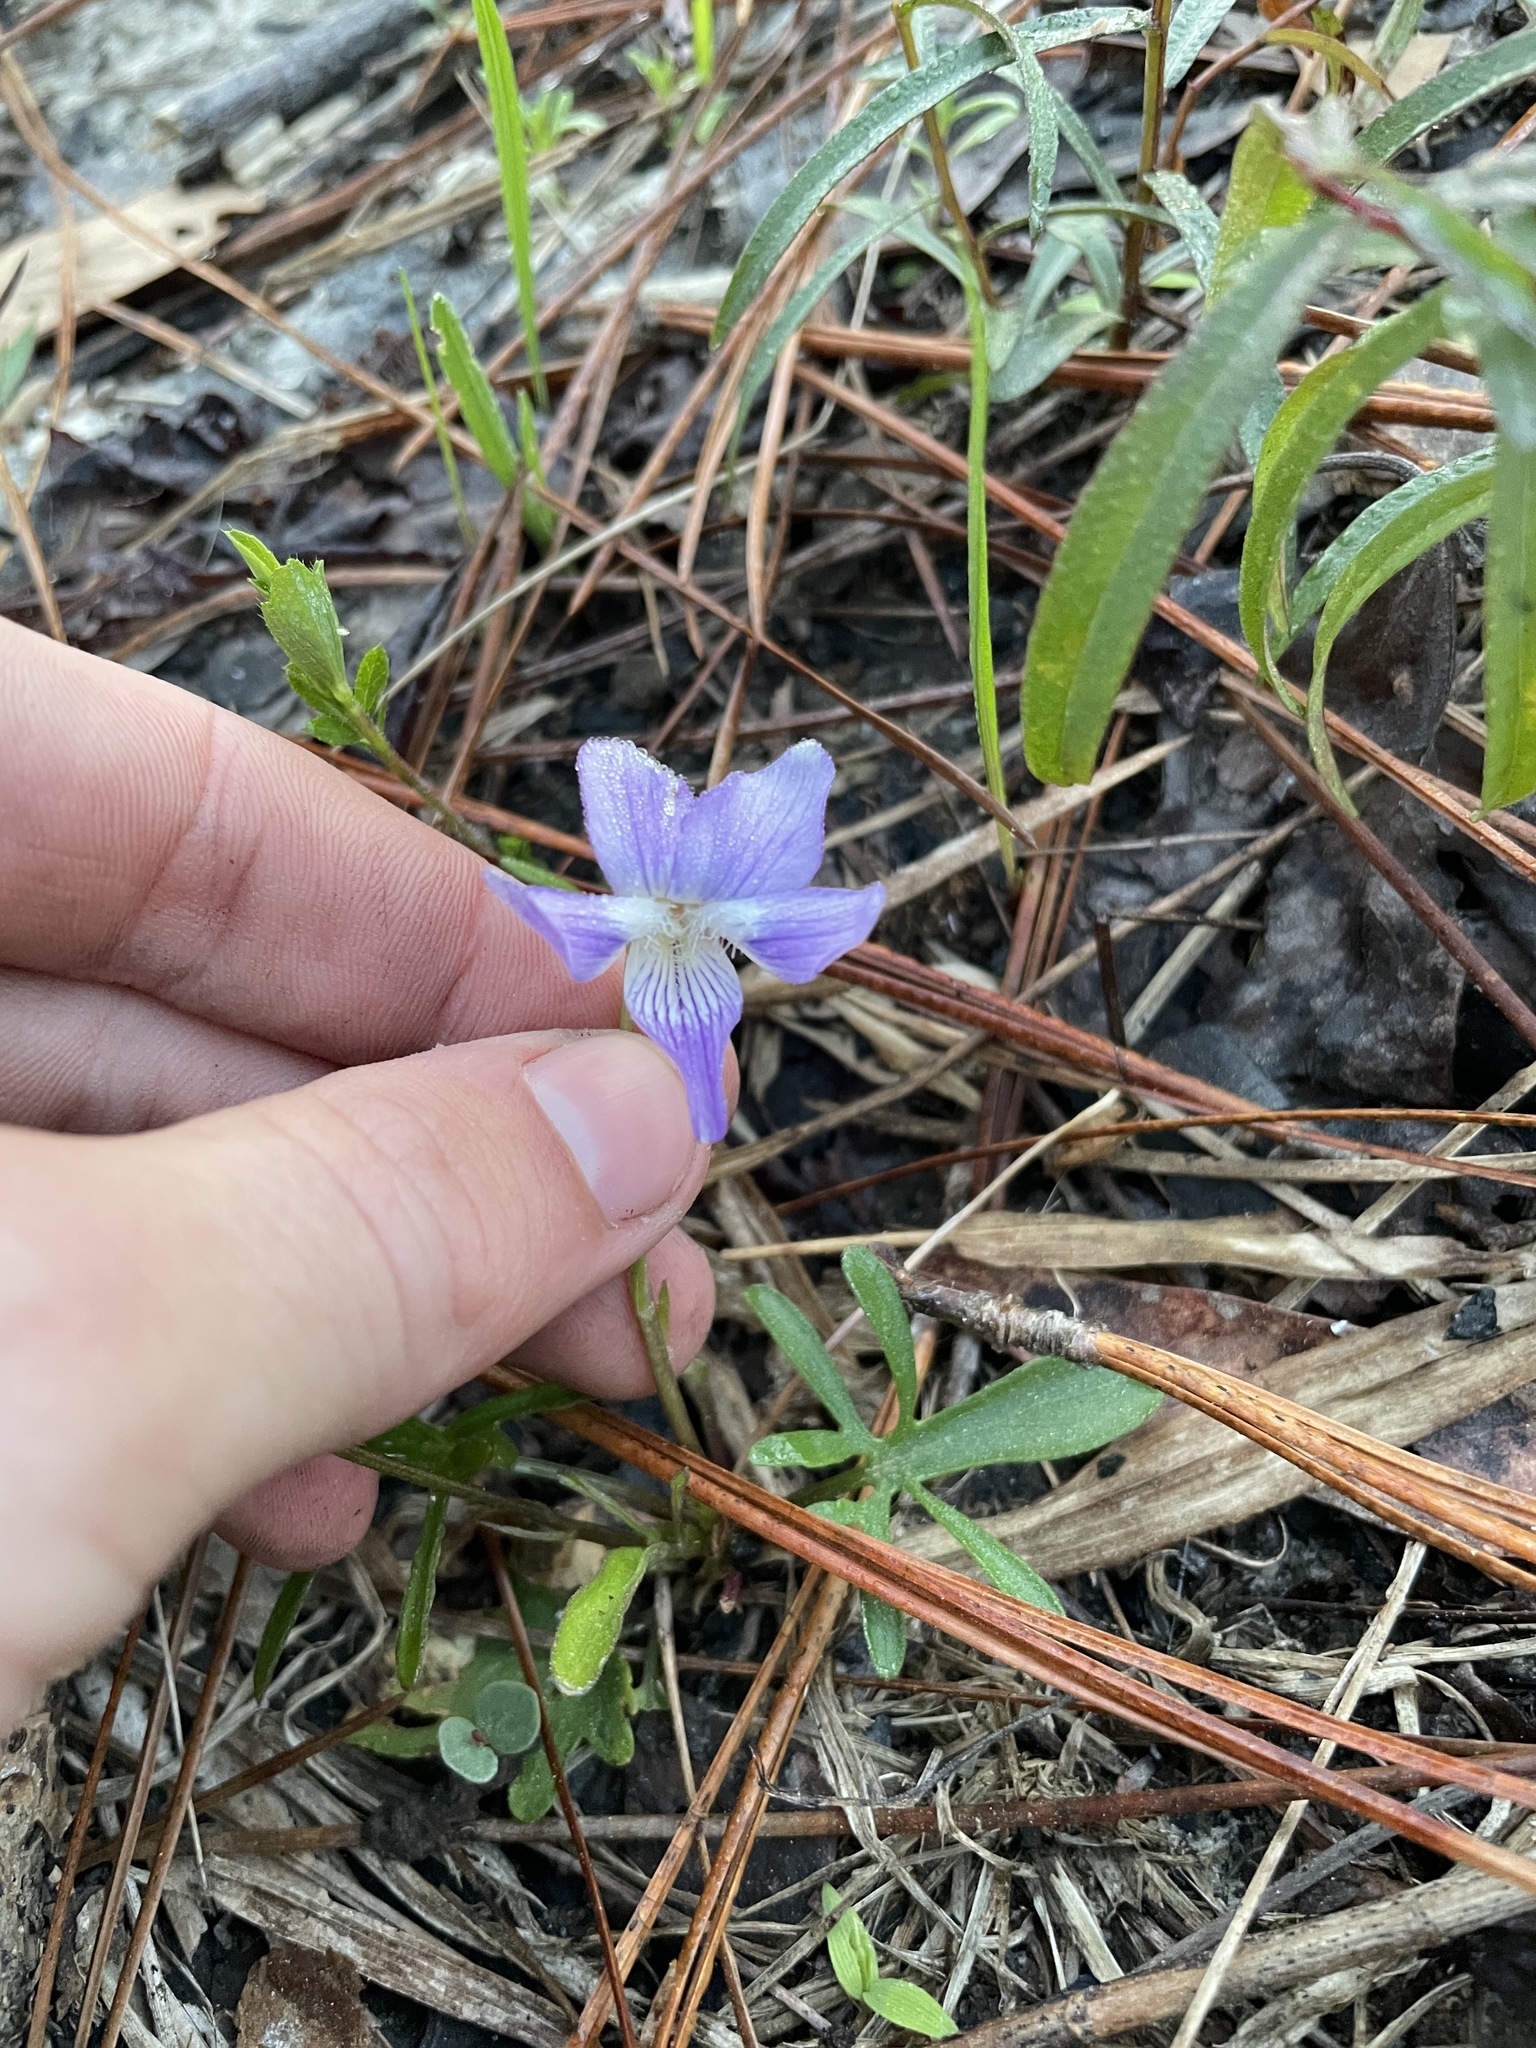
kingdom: Plantae
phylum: Tracheophyta
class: Magnoliopsida
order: Malpighiales
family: Violaceae
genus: Viola
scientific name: Viola palmata
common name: Early blue violet
